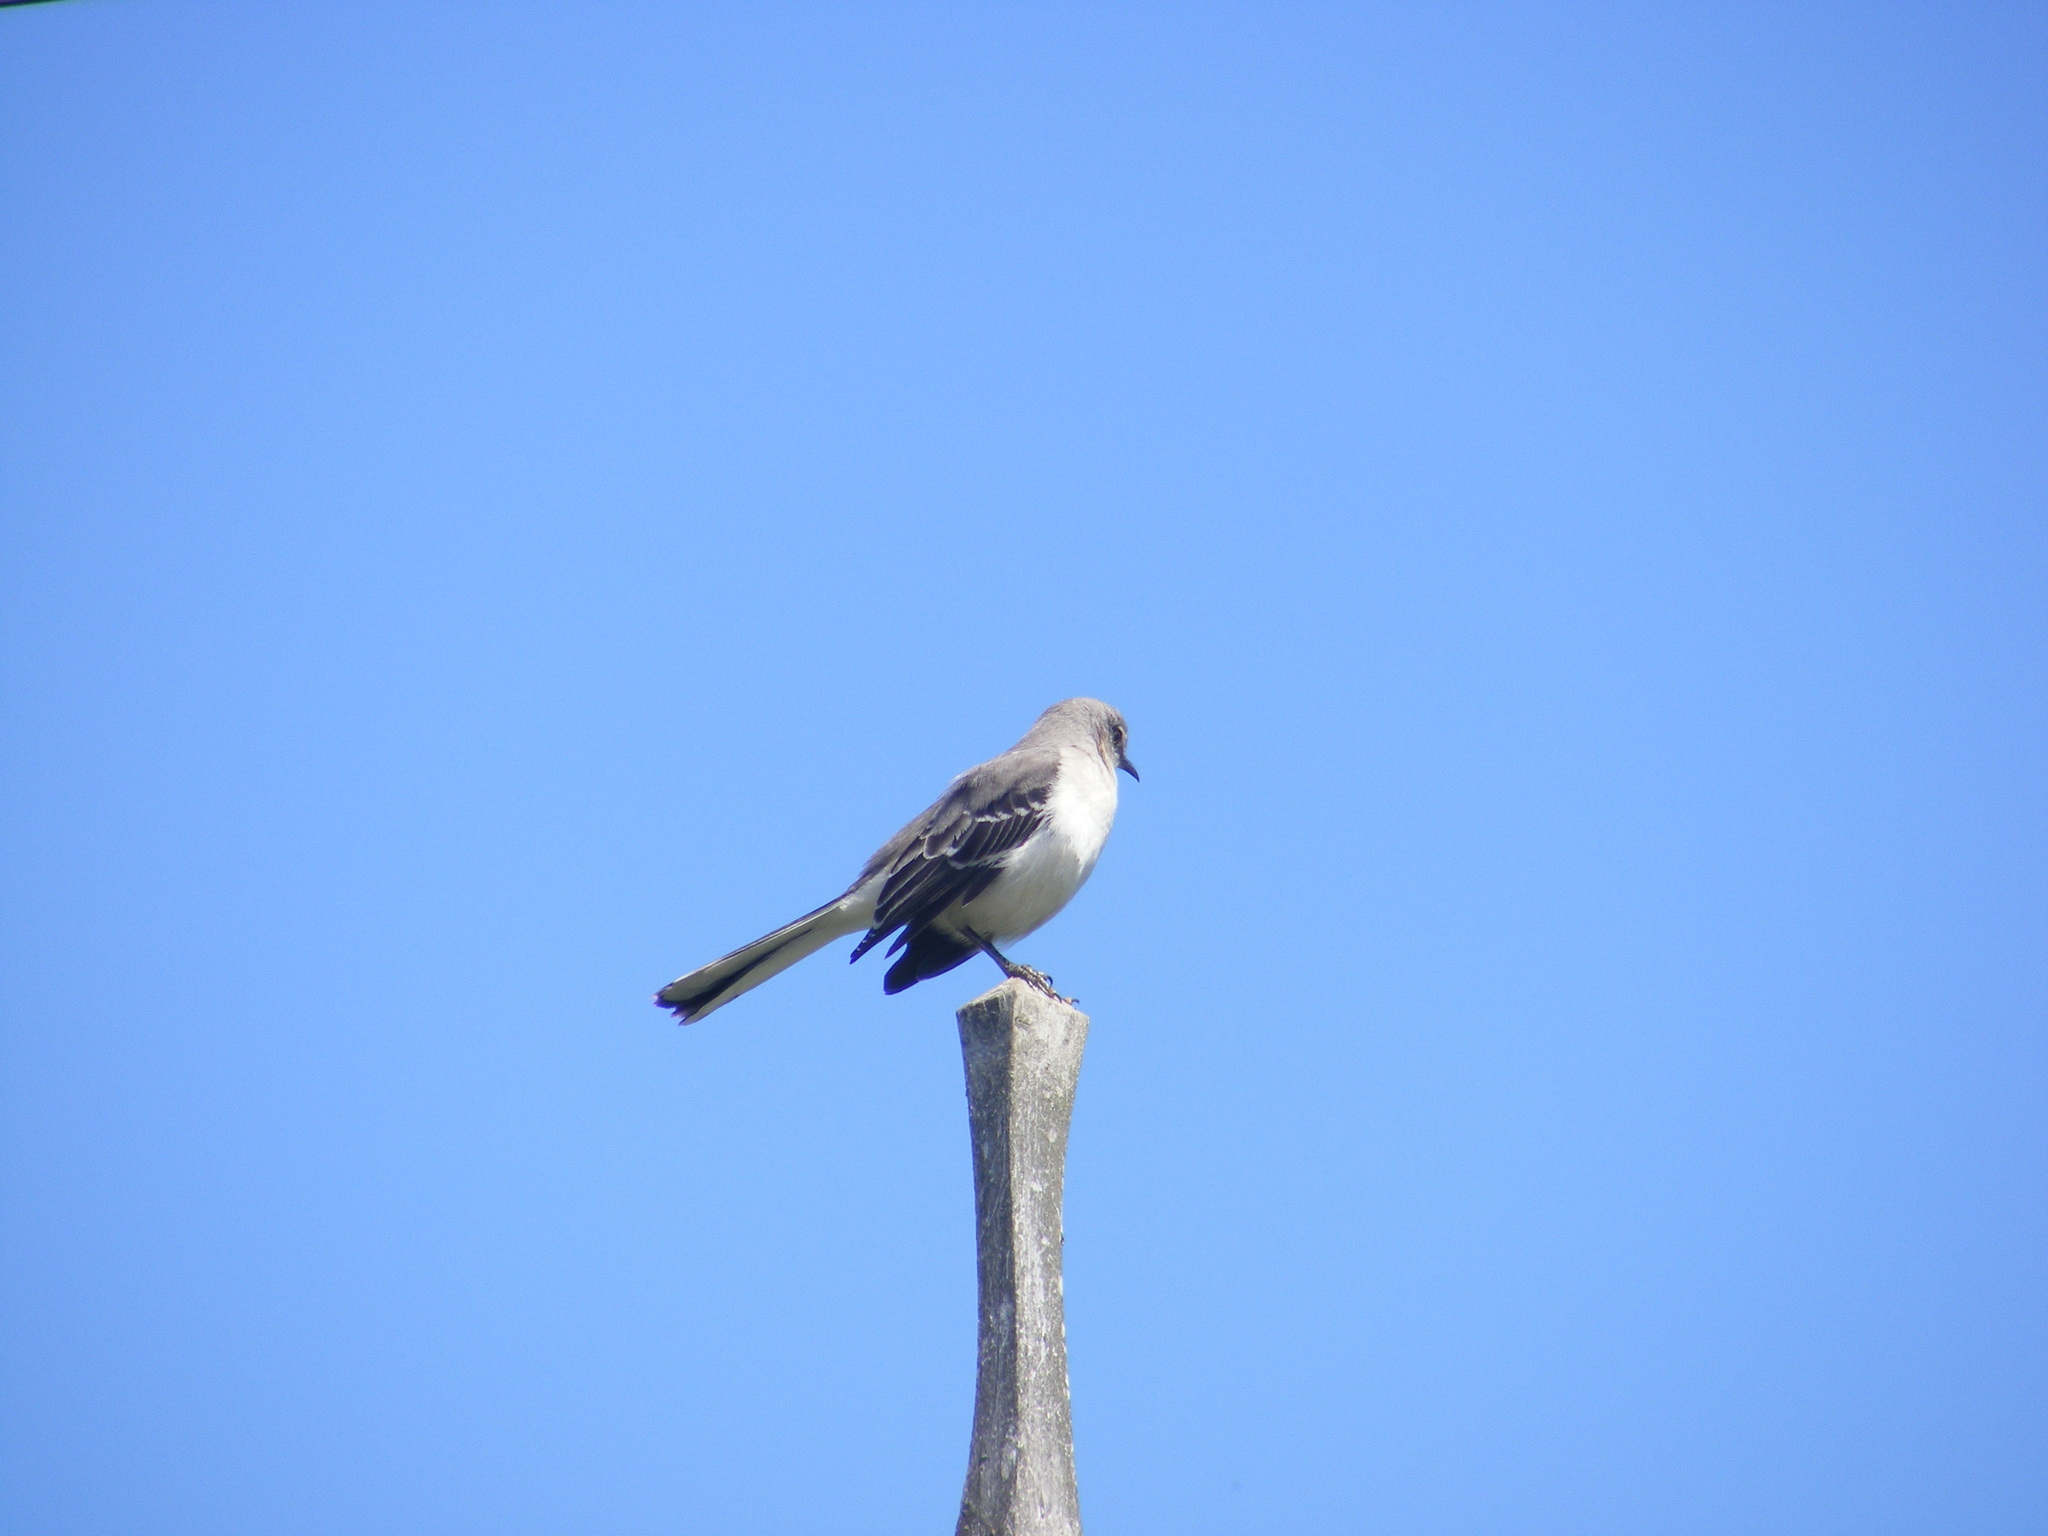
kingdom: Animalia
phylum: Chordata
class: Aves
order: Passeriformes
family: Mimidae
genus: Mimus
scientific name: Mimus polyglottos
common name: Northern mockingbird
